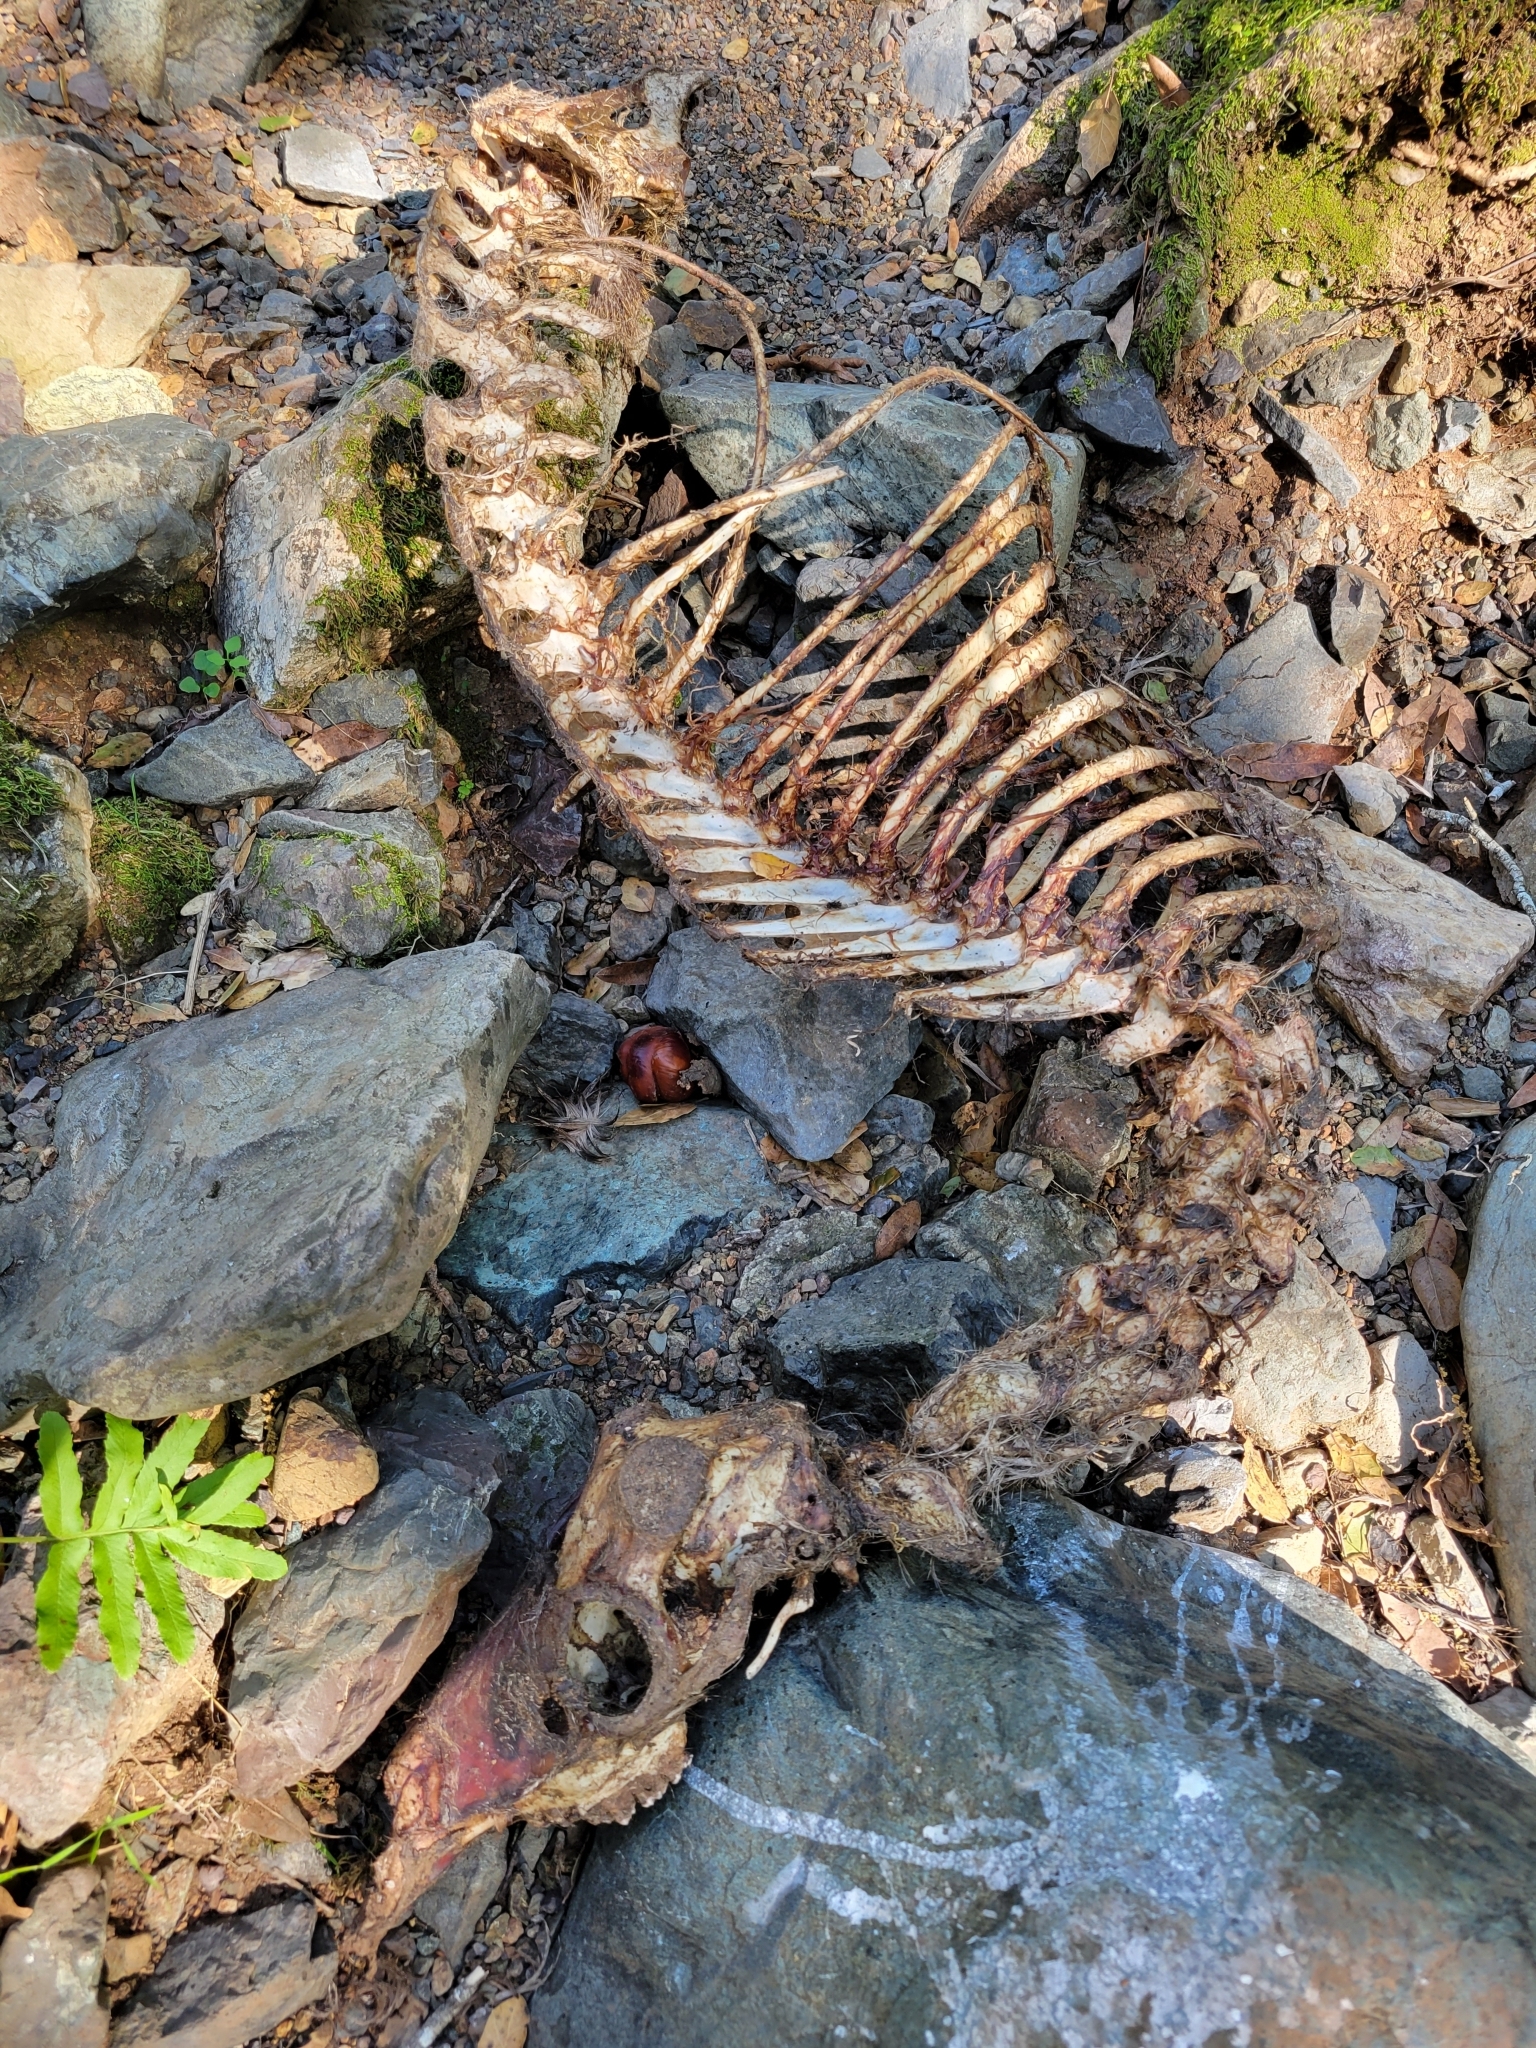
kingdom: Animalia
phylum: Chordata
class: Mammalia
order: Artiodactyla
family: Cervidae
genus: Odocoileus
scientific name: Odocoileus hemionus
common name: Mule deer
